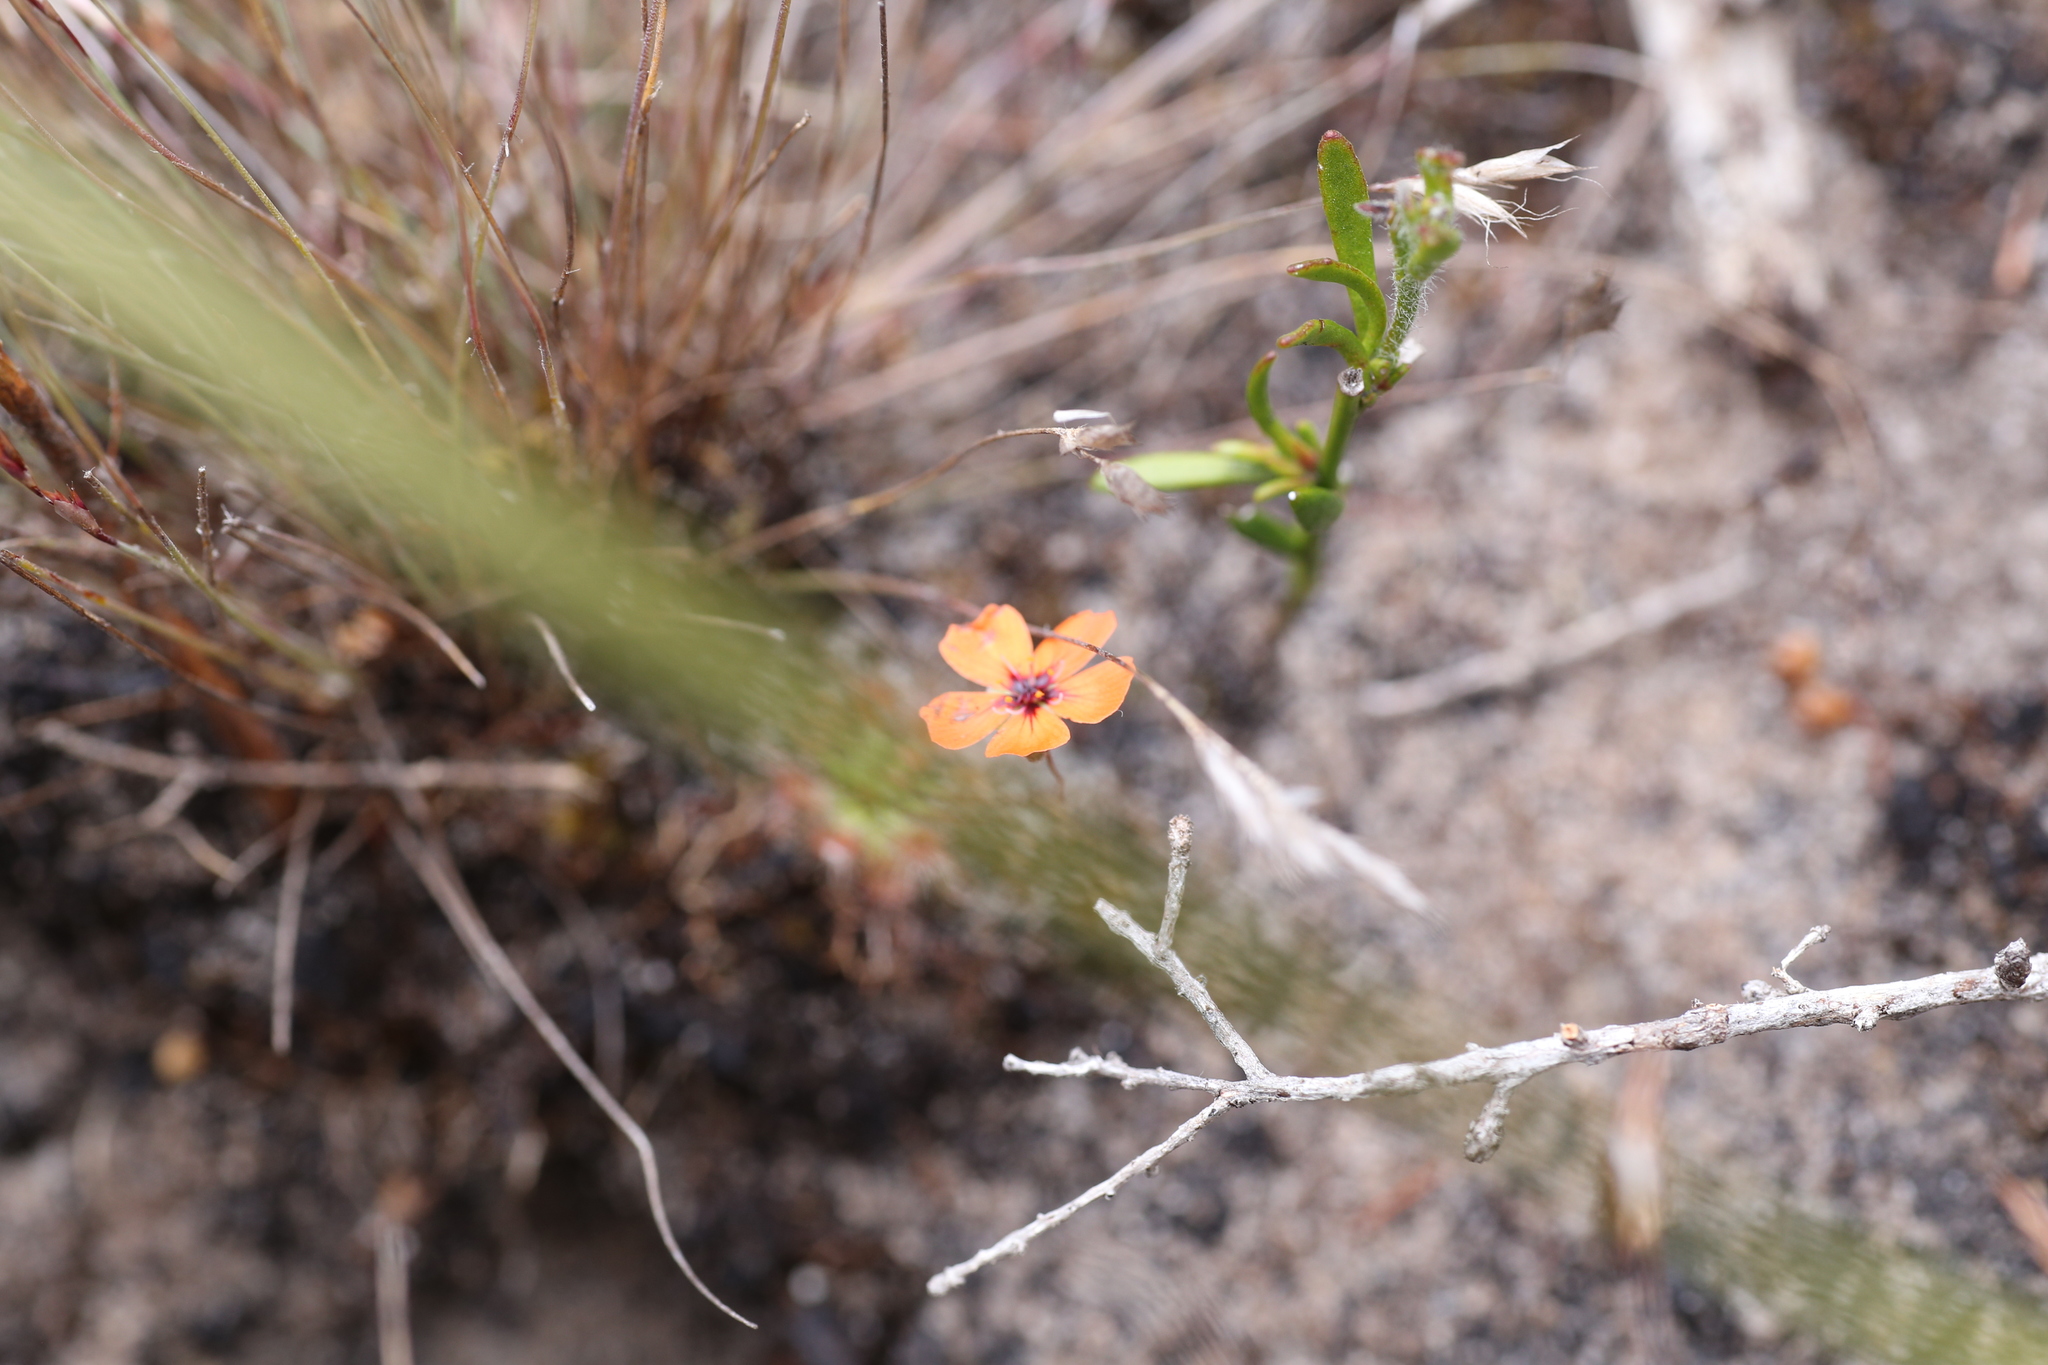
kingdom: Plantae
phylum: Tracheophyta
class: Magnoliopsida
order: Caryophyllales
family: Droseraceae
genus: Drosera
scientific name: Drosera pulchella
